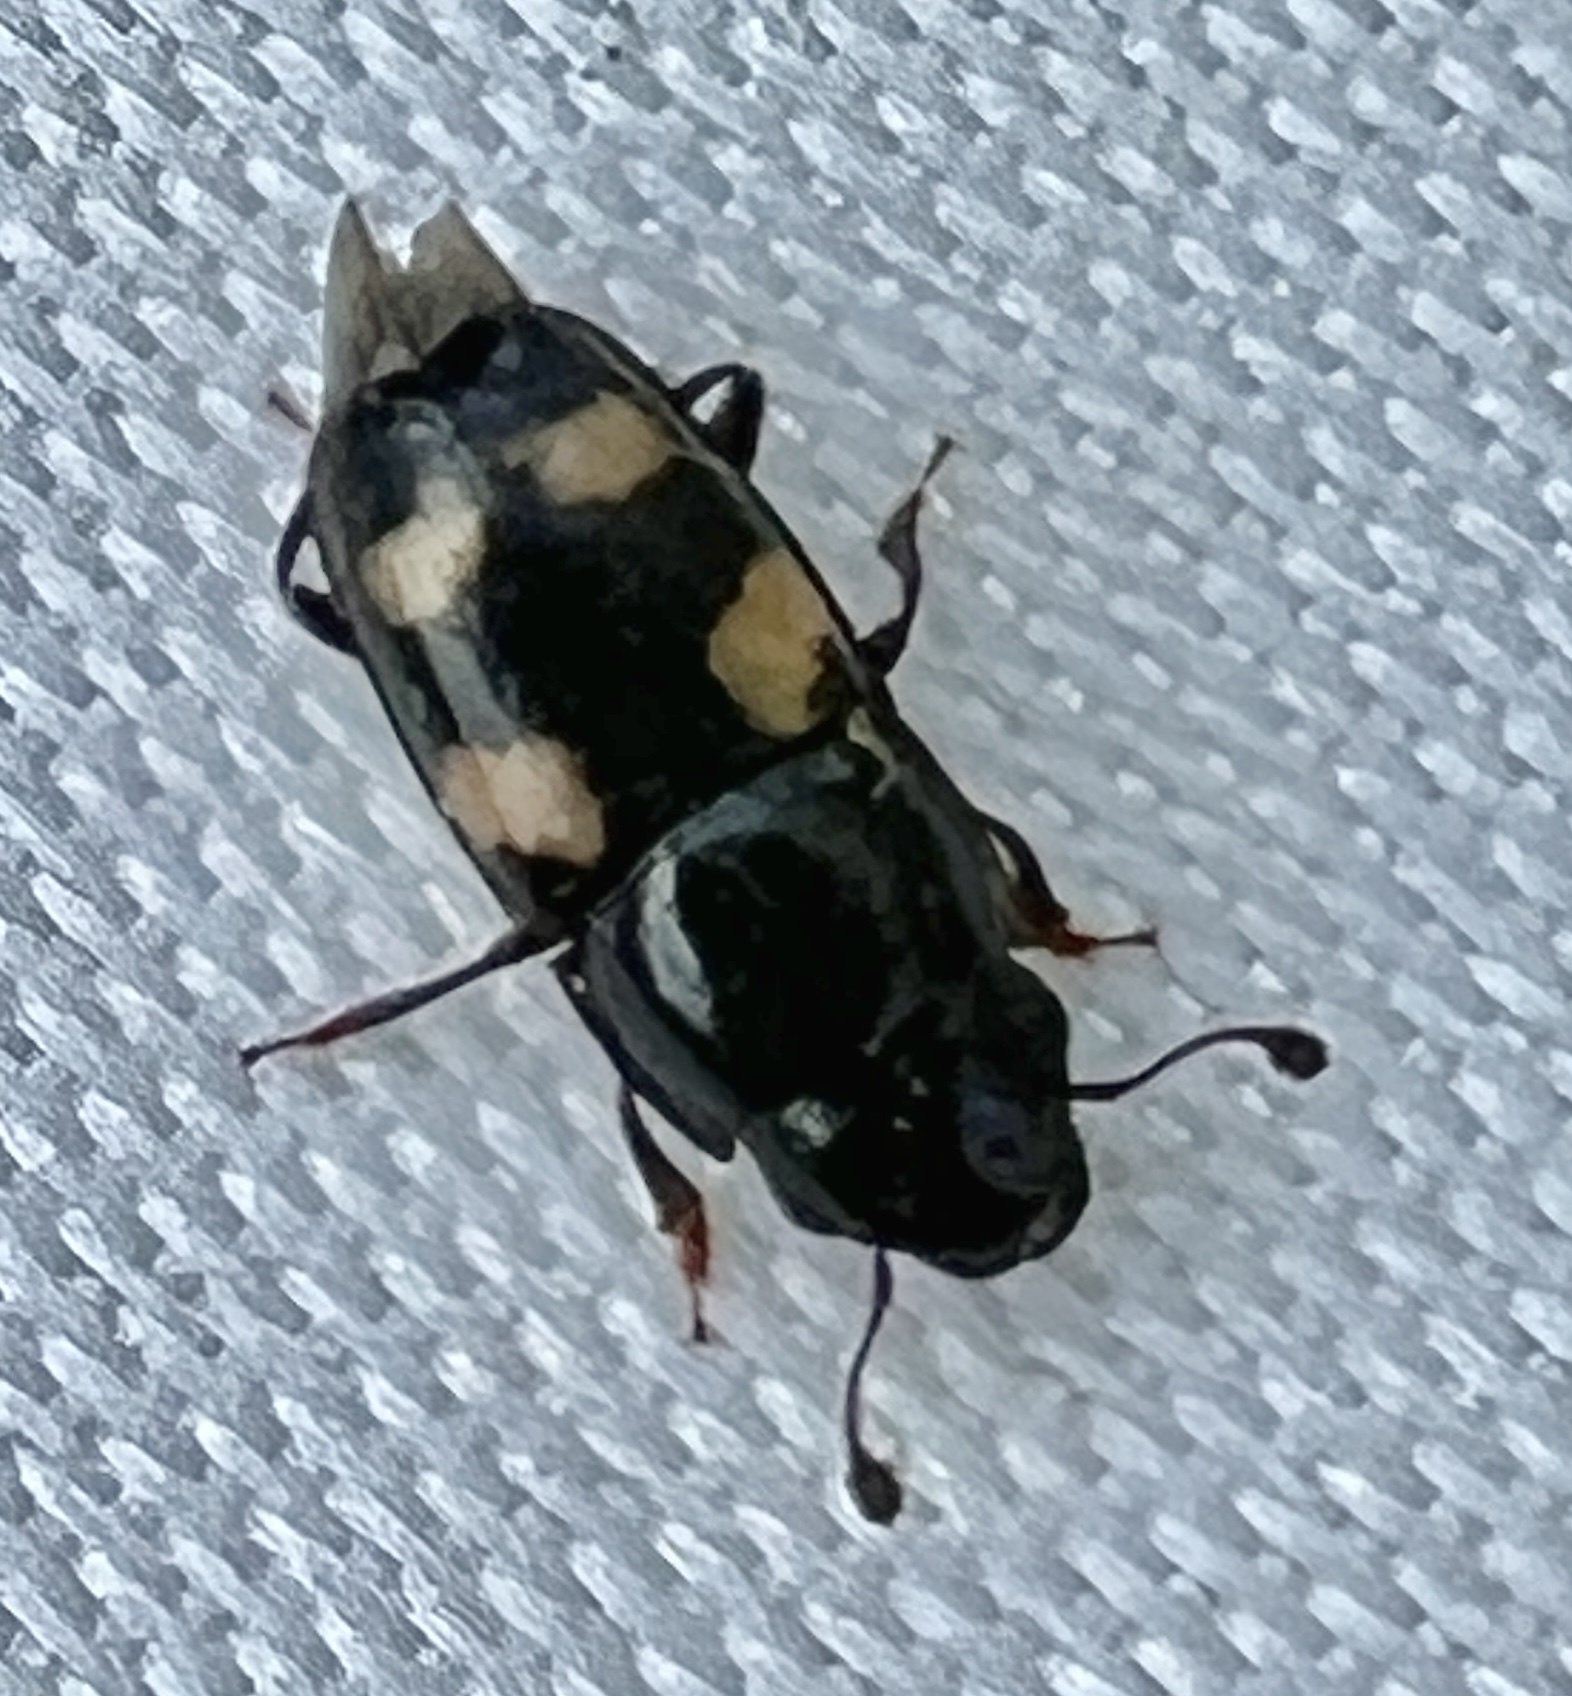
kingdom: Animalia
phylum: Arthropoda
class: Insecta
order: Coleoptera
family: Nitidulidae
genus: Glischrochilus
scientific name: Glischrochilus quadrisignatus
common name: Picnic beetle
